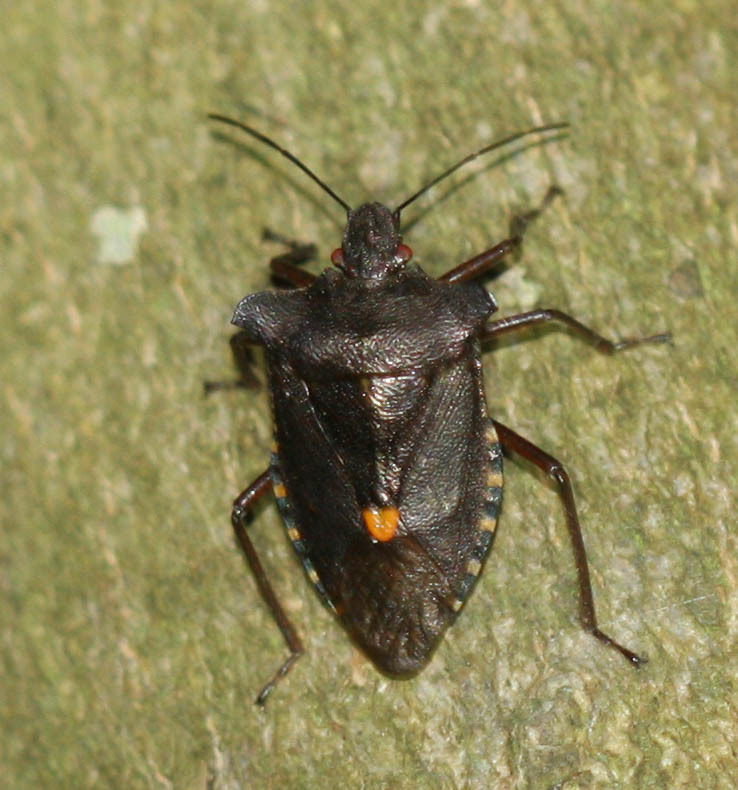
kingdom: Animalia
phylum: Arthropoda
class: Insecta
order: Hemiptera
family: Pentatomidae
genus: Pentatoma
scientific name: Pentatoma rufipes
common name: Forest bug
